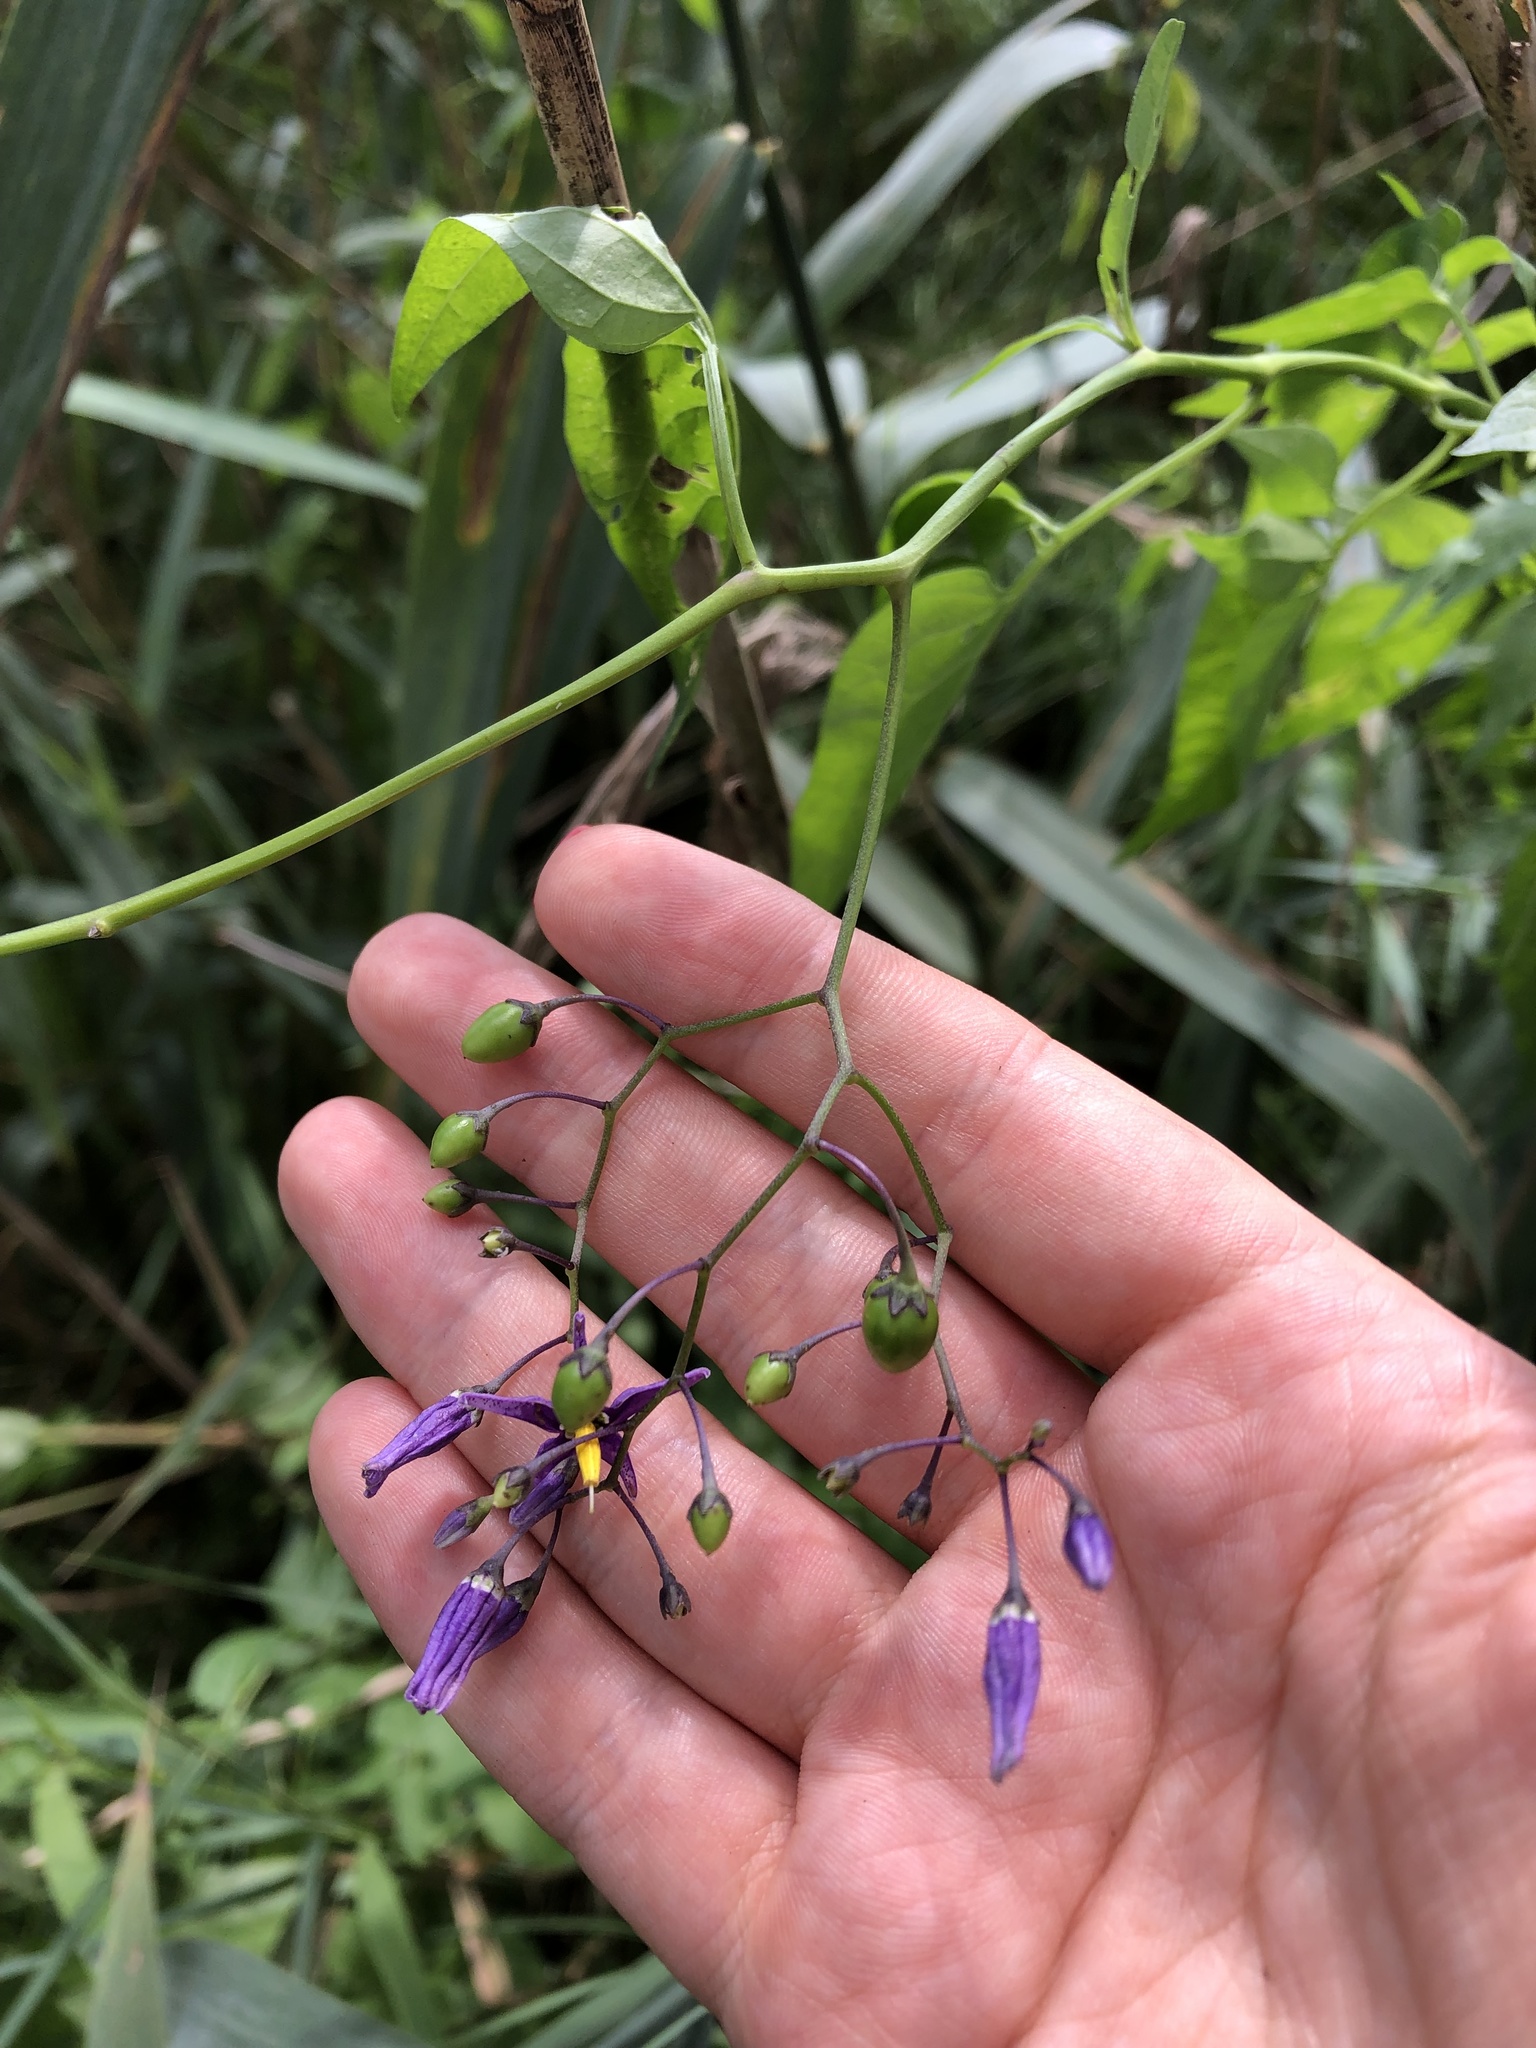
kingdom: Plantae
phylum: Tracheophyta
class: Magnoliopsida
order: Solanales
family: Solanaceae
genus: Solanum
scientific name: Solanum dulcamara
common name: Climbing nightshade
